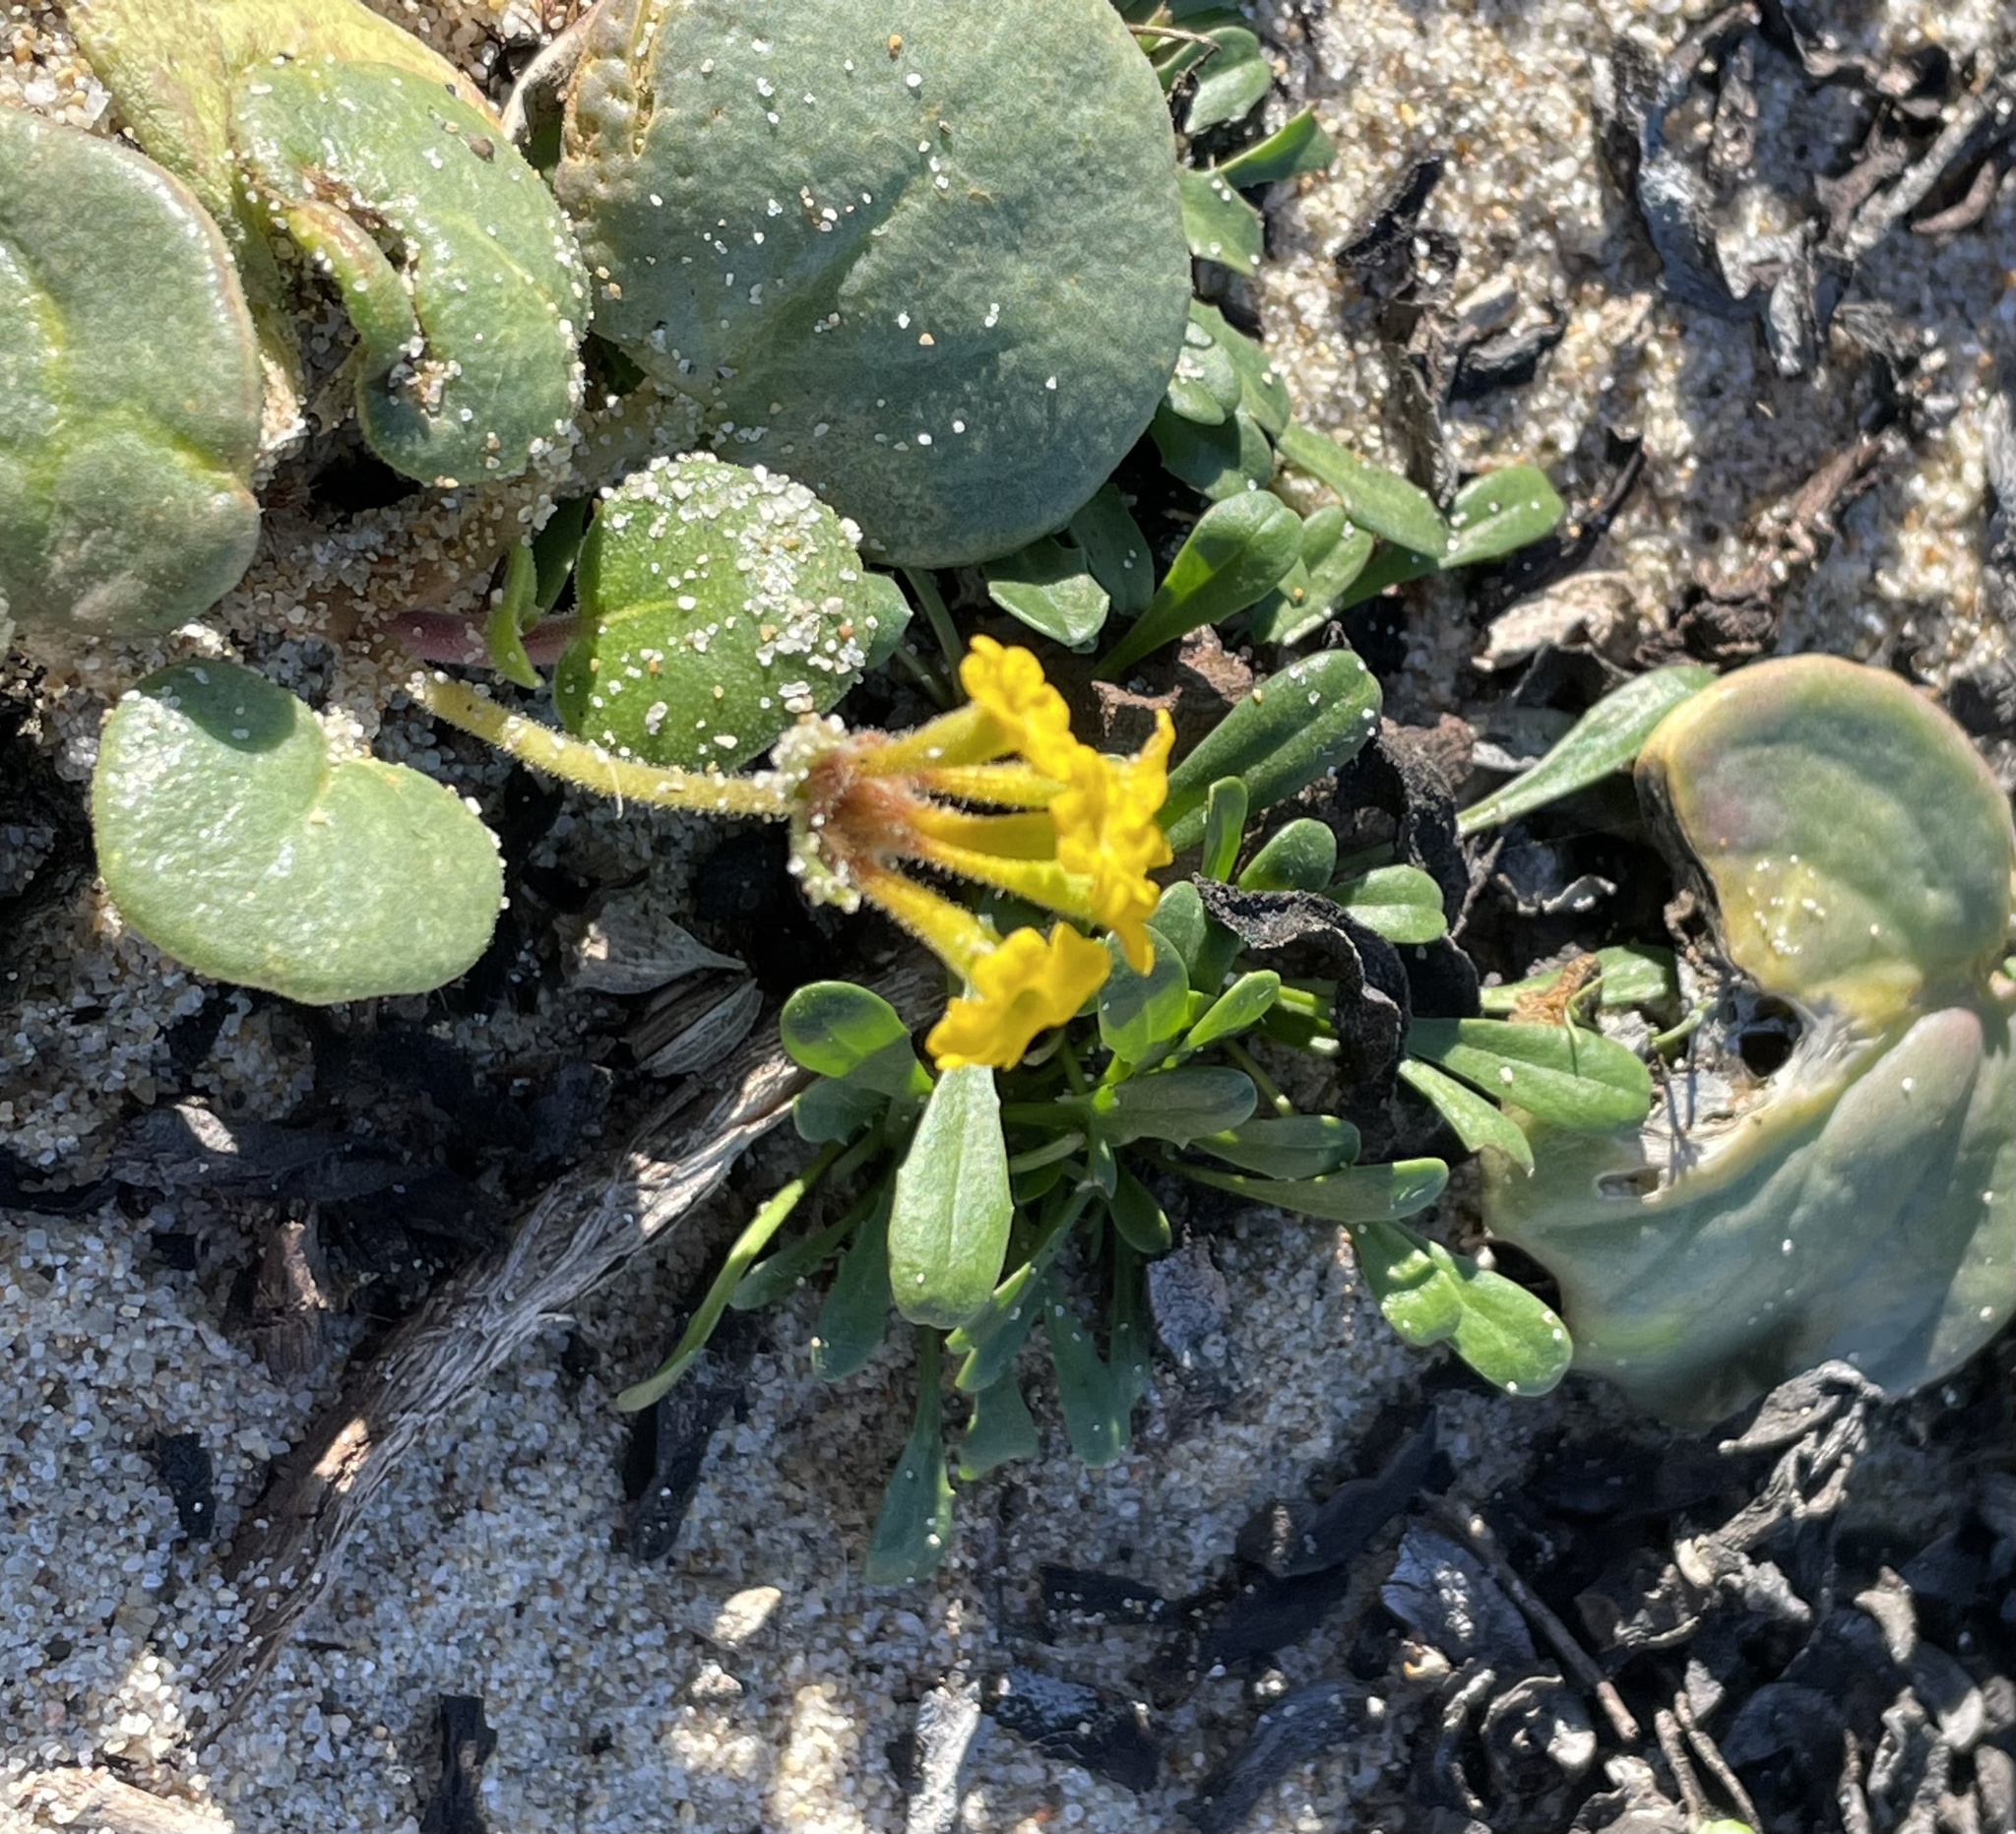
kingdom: Plantae
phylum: Tracheophyta
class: Magnoliopsida
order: Caryophyllales
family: Nyctaginaceae
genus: Abronia
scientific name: Abronia latifolia
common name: Yellow sand-verbena
